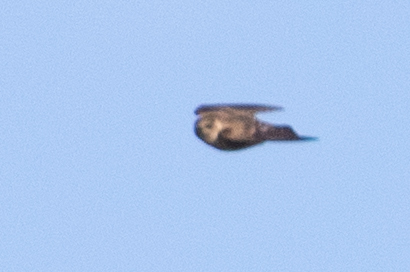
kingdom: Animalia
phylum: Chordata
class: Aves
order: Passeriformes
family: Hirundinidae
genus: Stelgidopteryx
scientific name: Stelgidopteryx serripennis
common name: Northern rough-winged swallow
